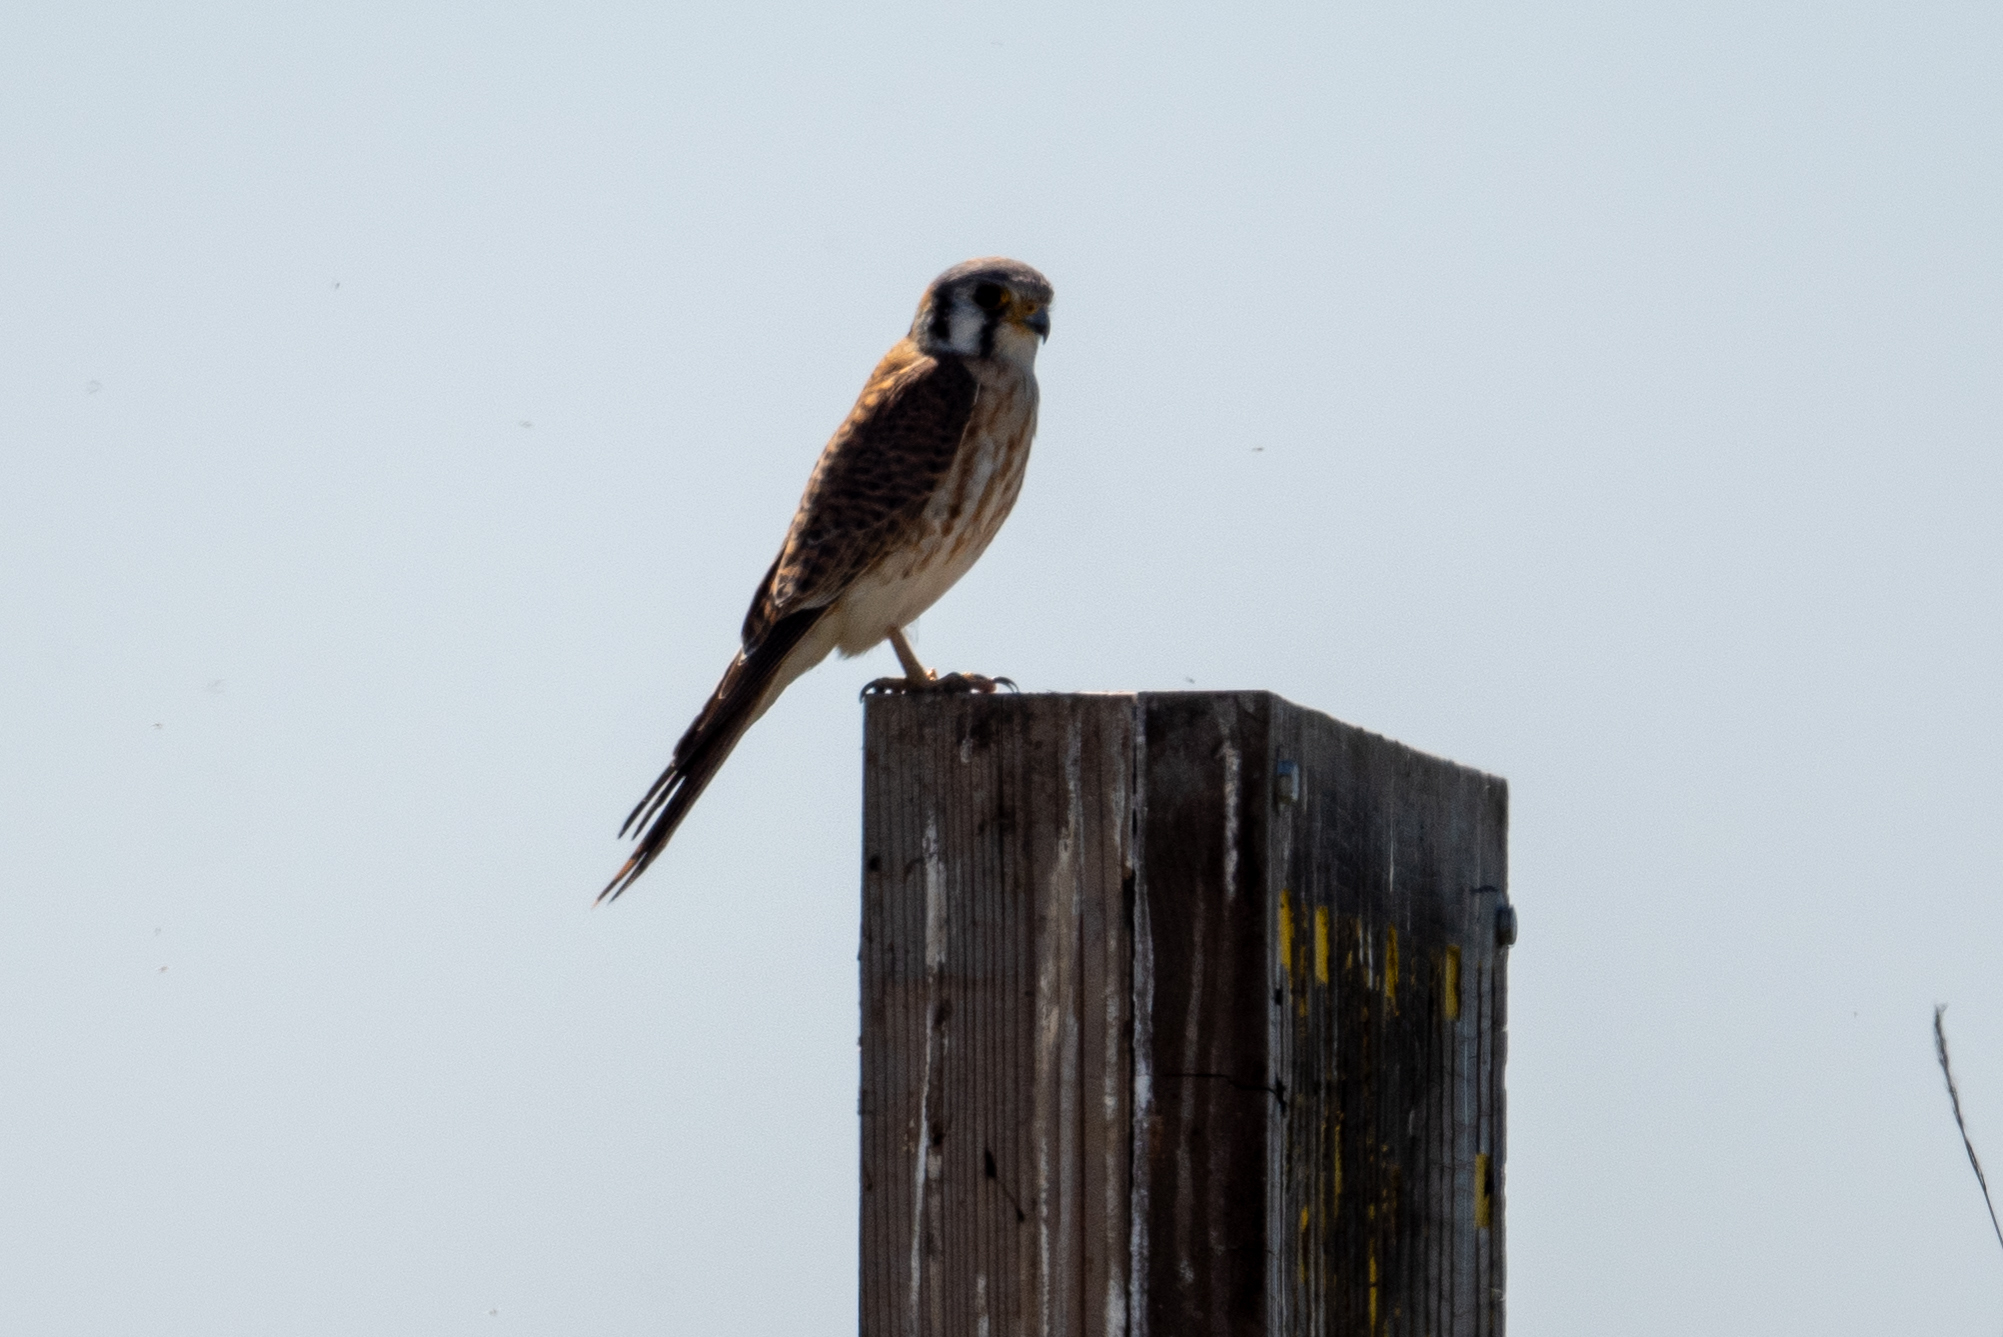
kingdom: Animalia
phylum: Chordata
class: Aves
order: Falconiformes
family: Falconidae
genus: Falco
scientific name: Falco sparverius
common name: American kestrel
